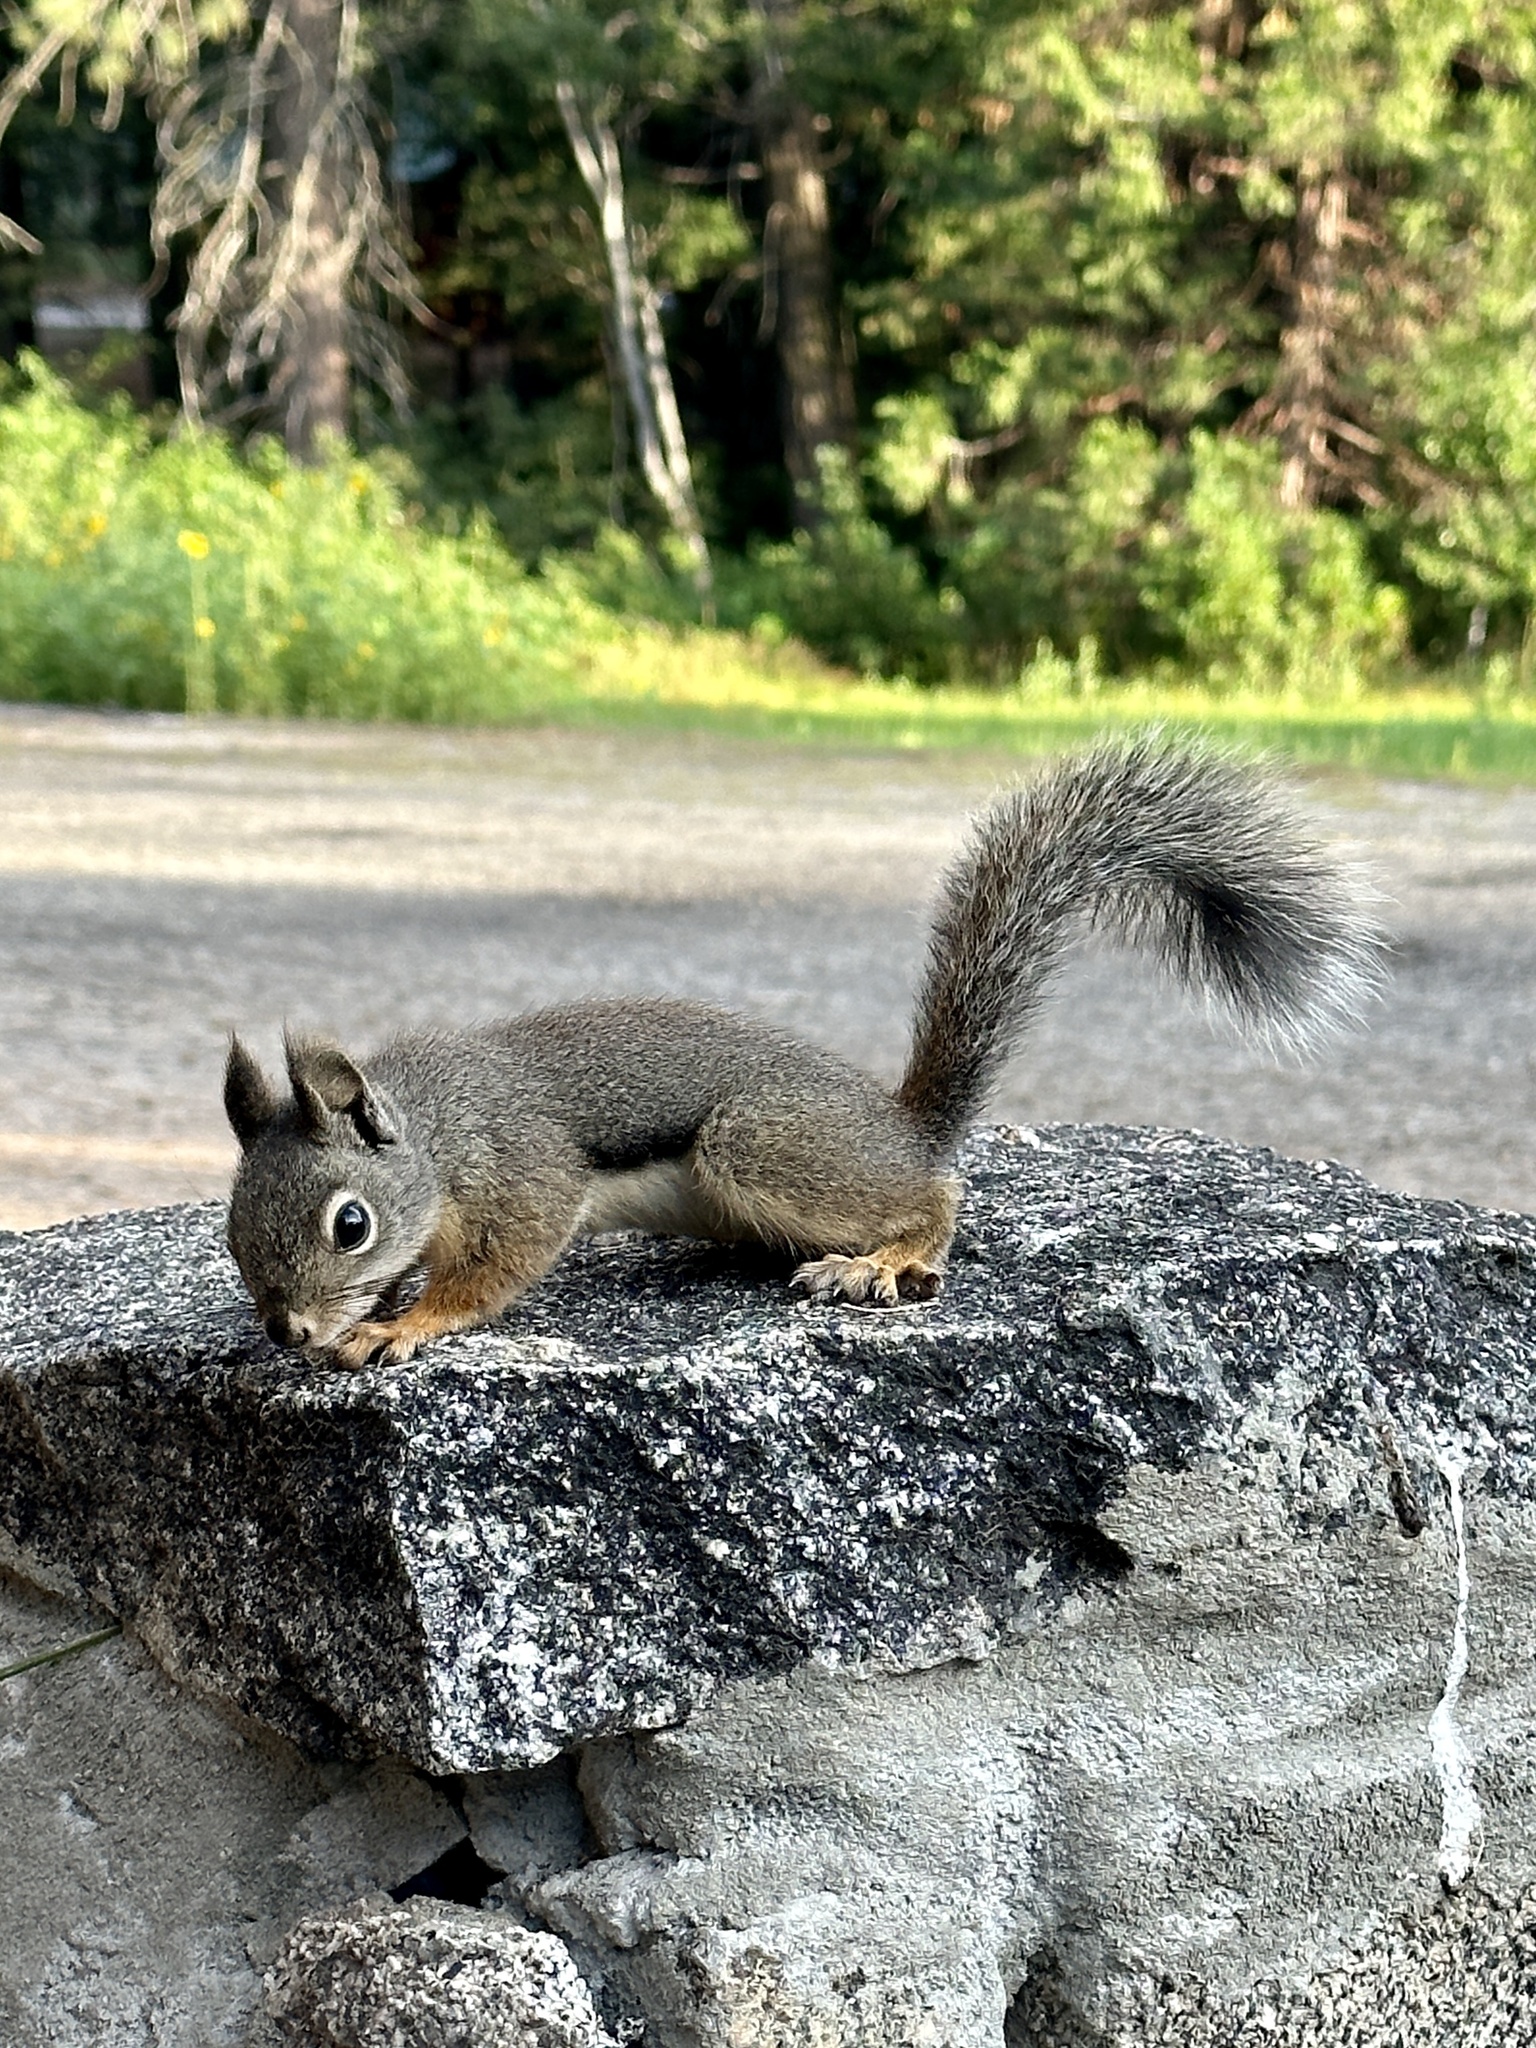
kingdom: Animalia
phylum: Chordata
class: Mammalia
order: Rodentia
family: Sciuridae
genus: Tamiasciurus
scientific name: Tamiasciurus douglasii
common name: Douglas's squirrel
